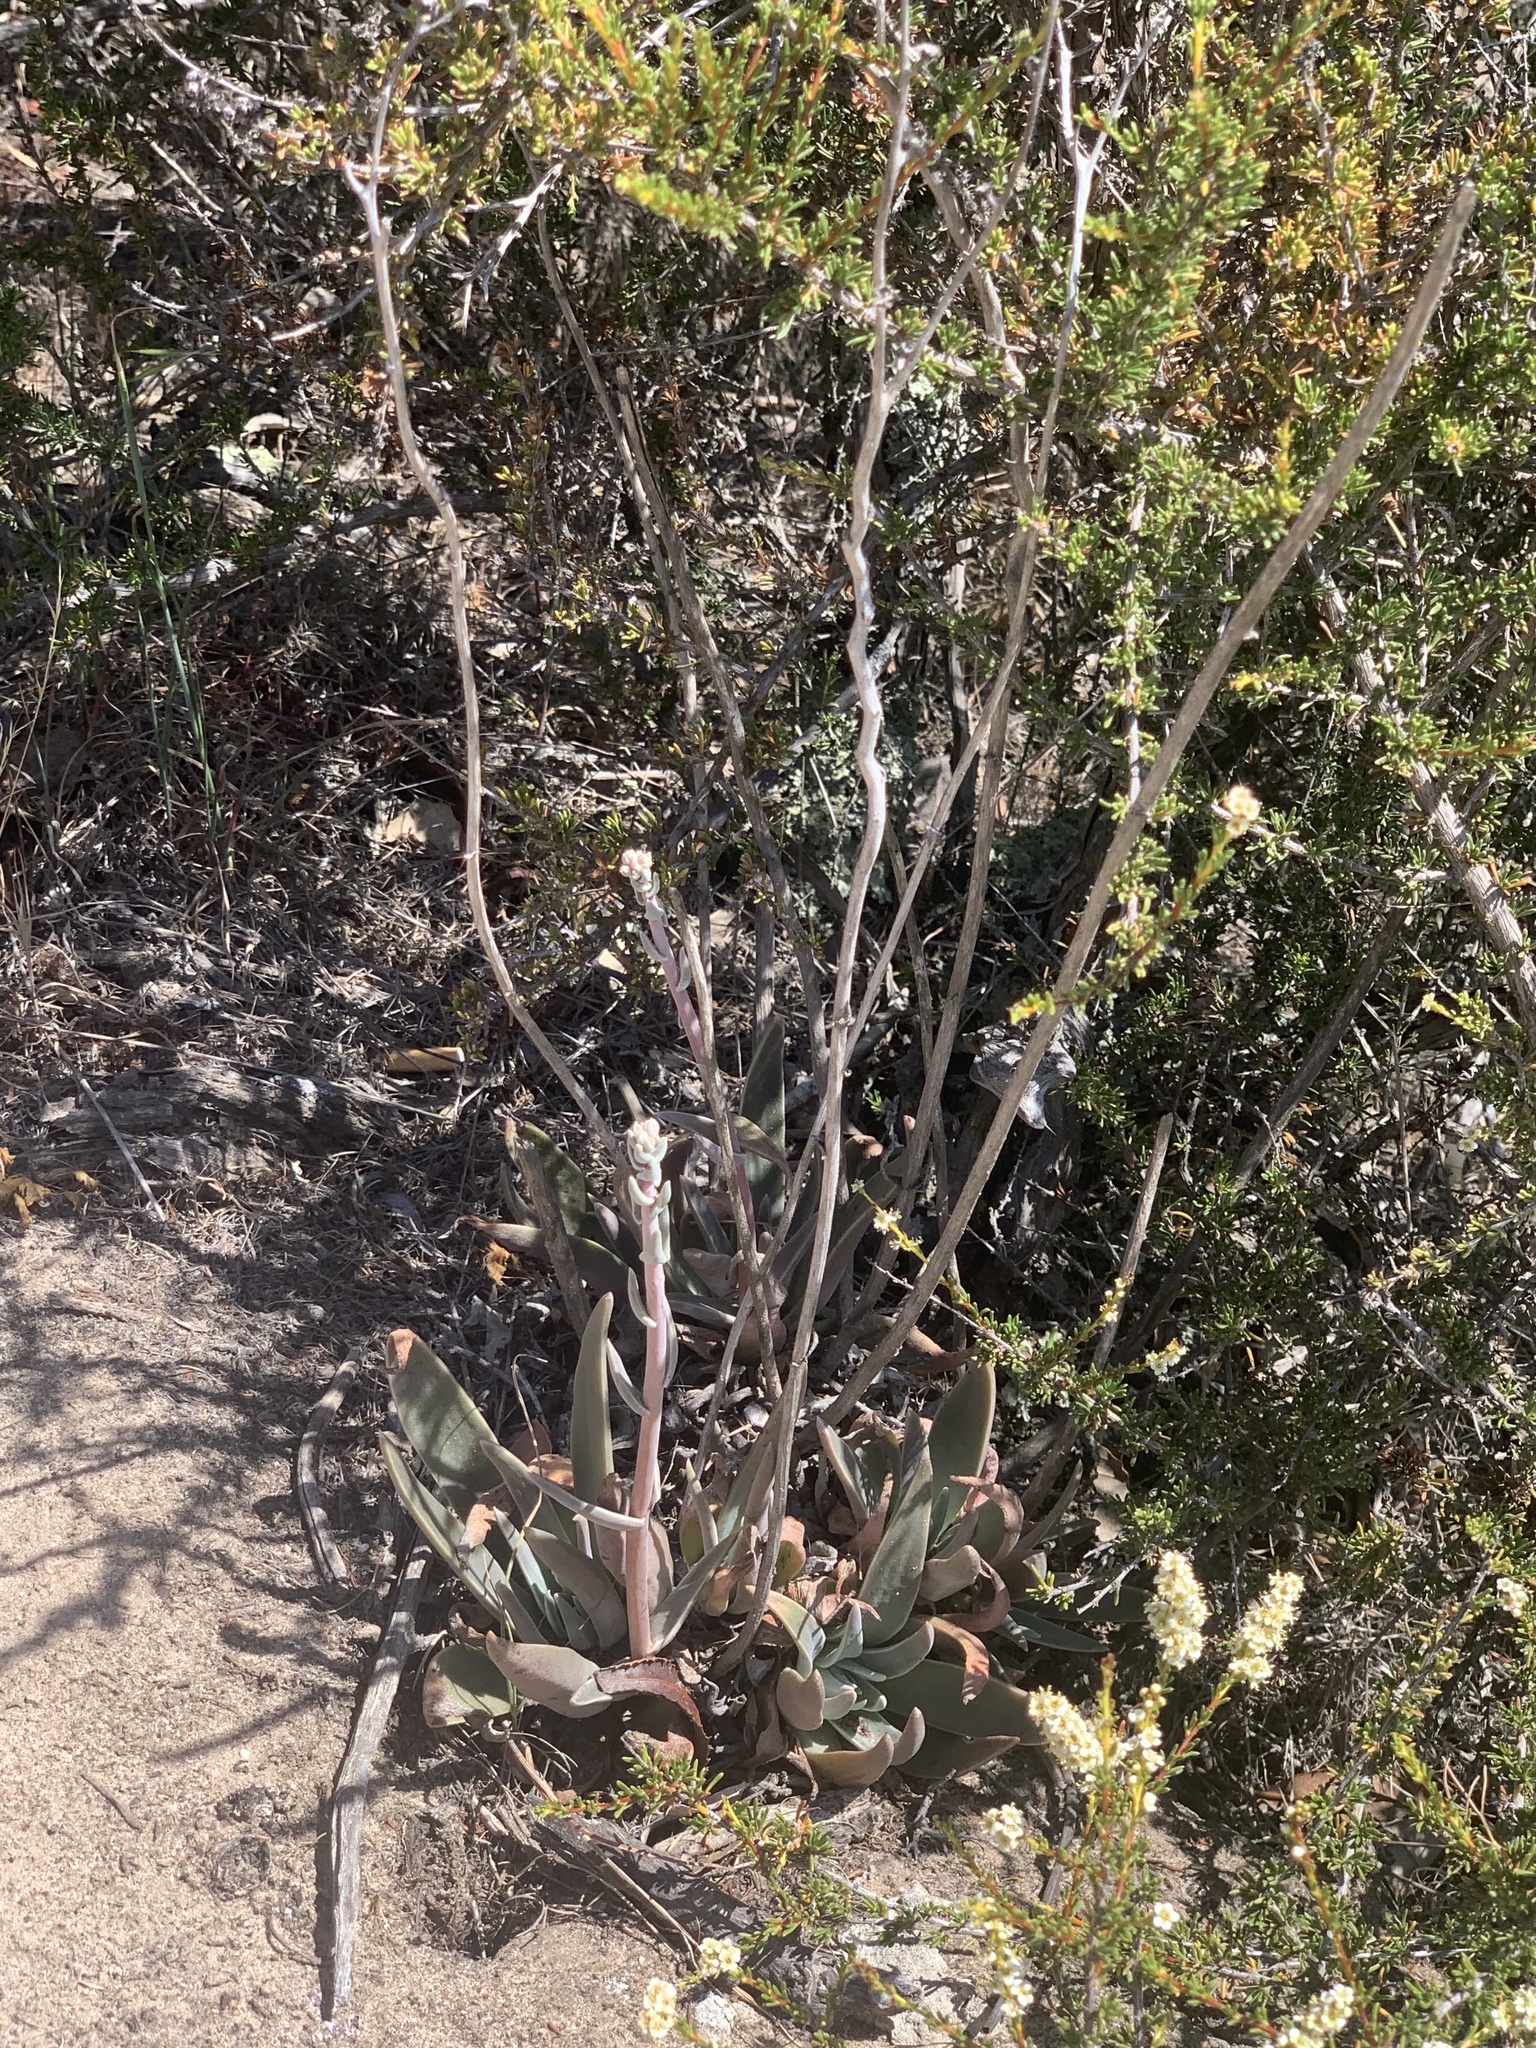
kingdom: Plantae
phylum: Tracheophyta
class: Magnoliopsida
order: Saxifragales
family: Crassulaceae
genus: Dudleya
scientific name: Dudleya caespitosa
